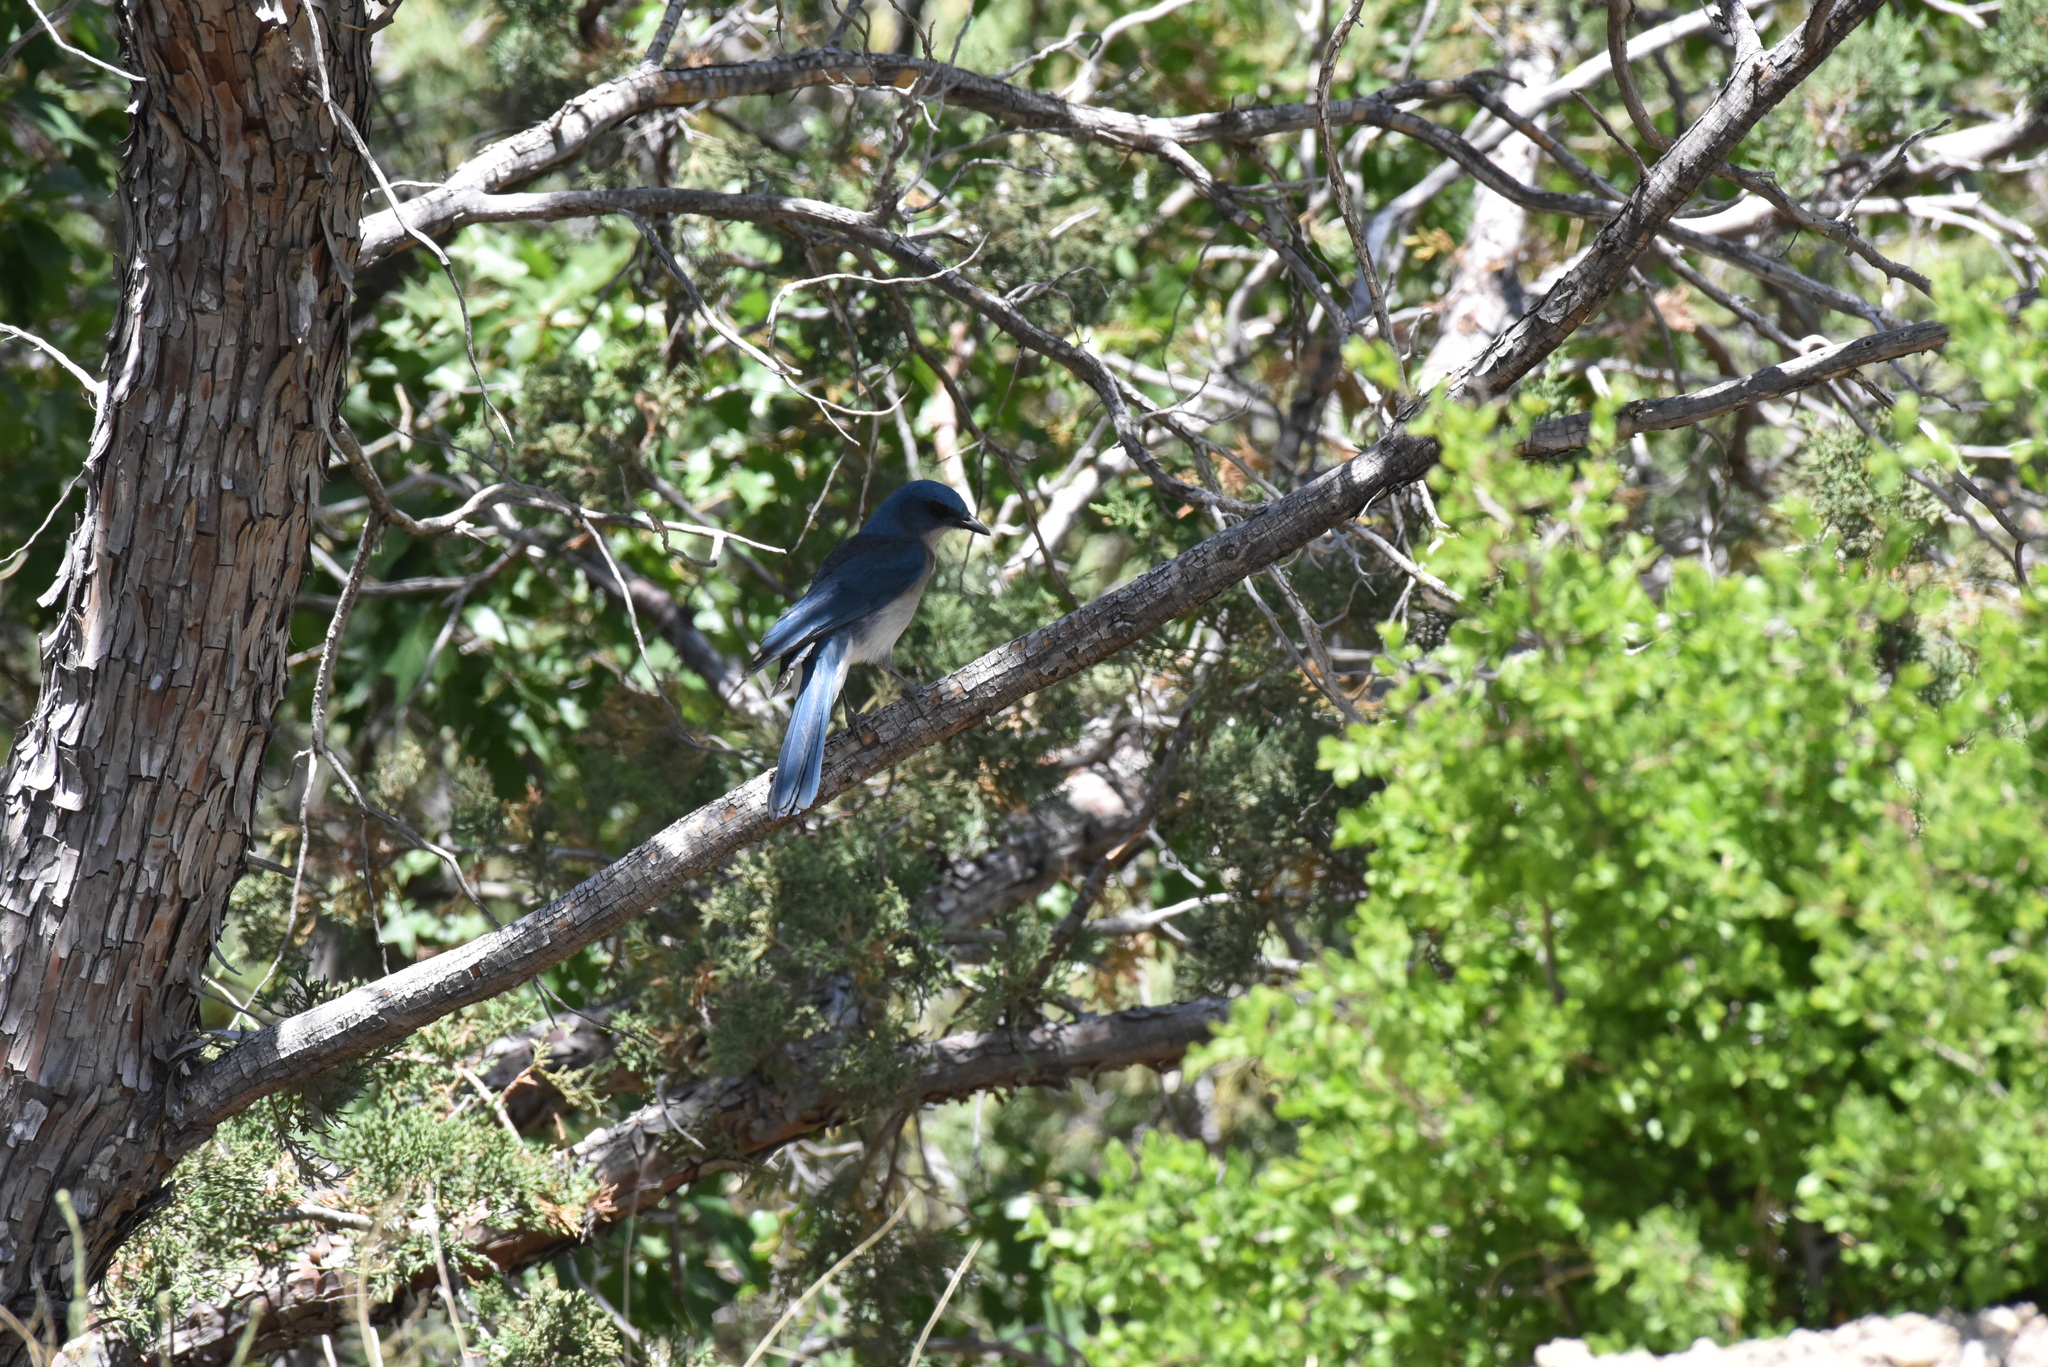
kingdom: Animalia
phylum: Chordata
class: Aves
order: Passeriformes
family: Corvidae
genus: Aphelocoma
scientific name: Aphelocoma wollweberi
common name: Mexican jay
